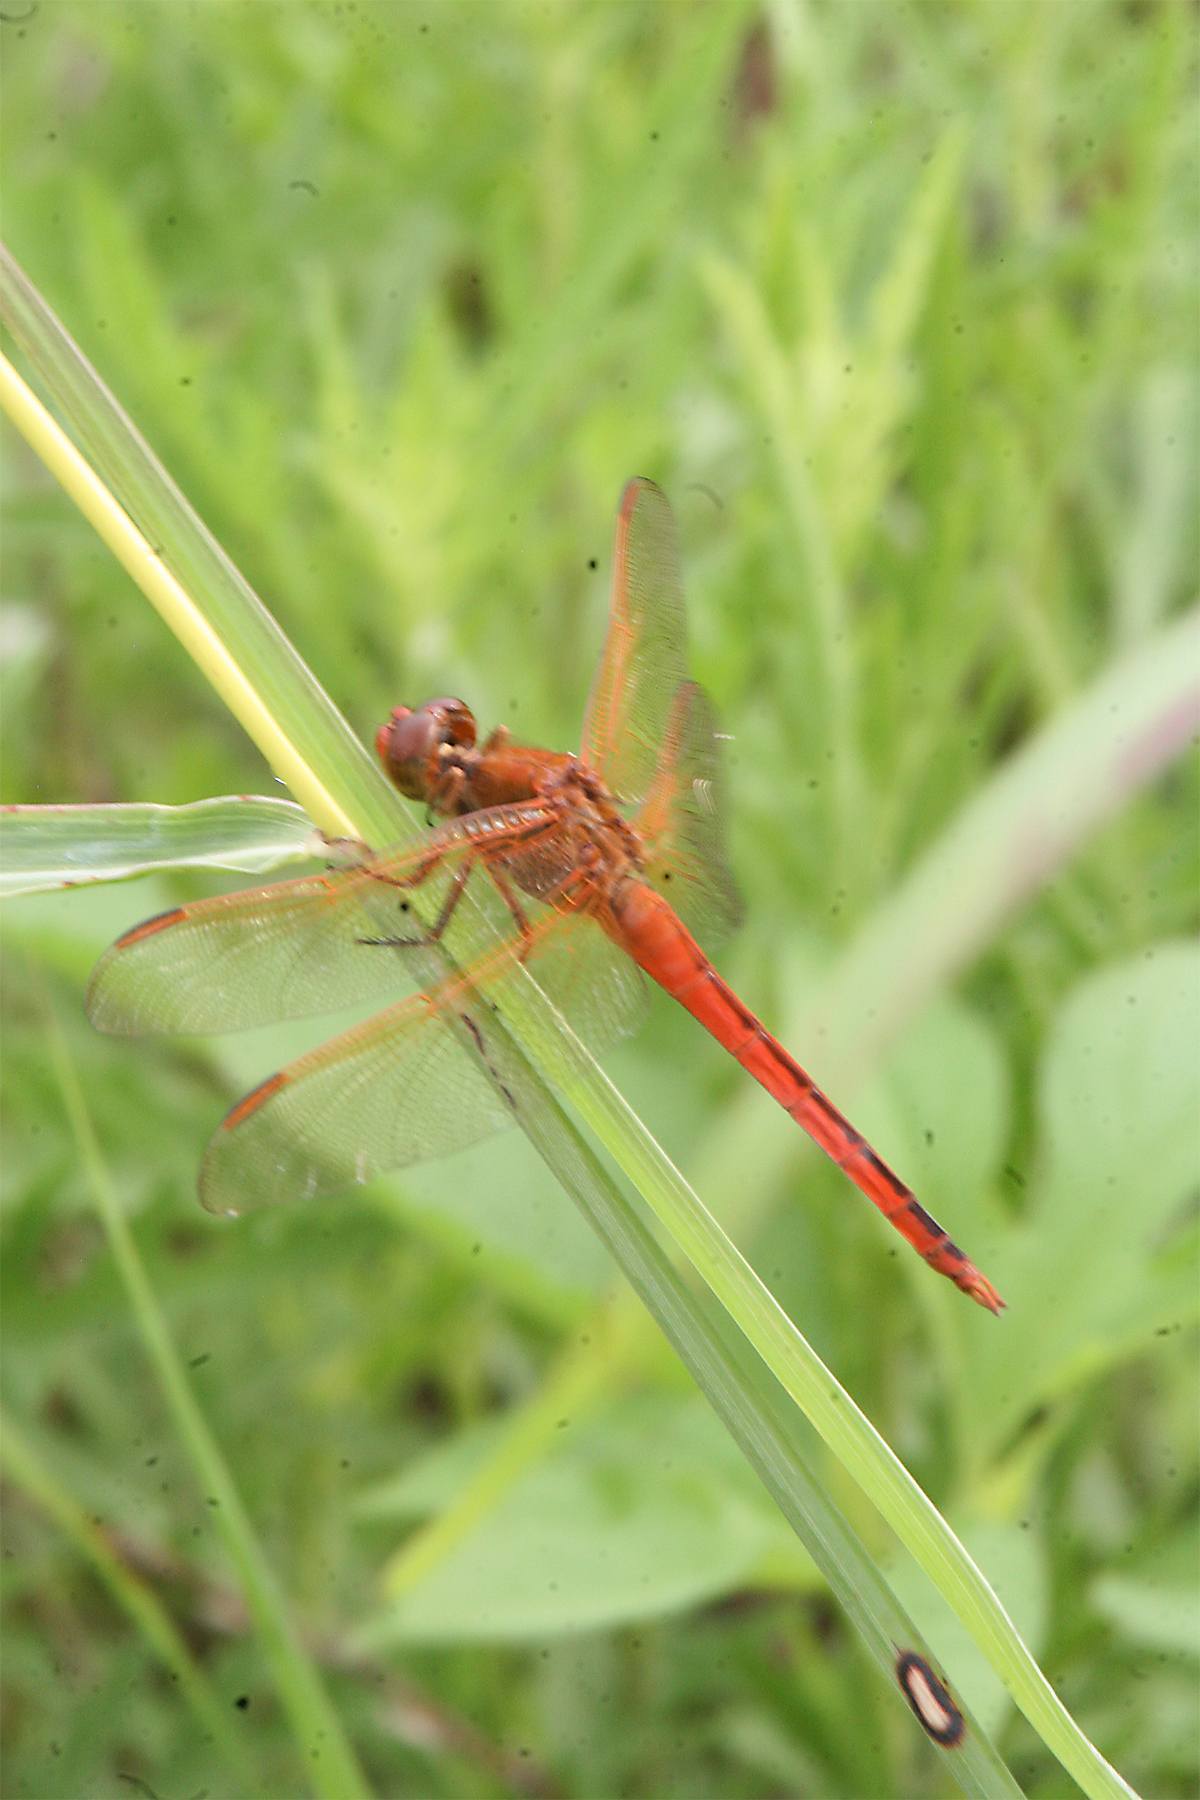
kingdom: Animalia
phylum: Arthropoda
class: Insecta
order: Odonata
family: Libellulidae
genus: Libellula
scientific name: Libellula needhami
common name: Needham's skimmer
